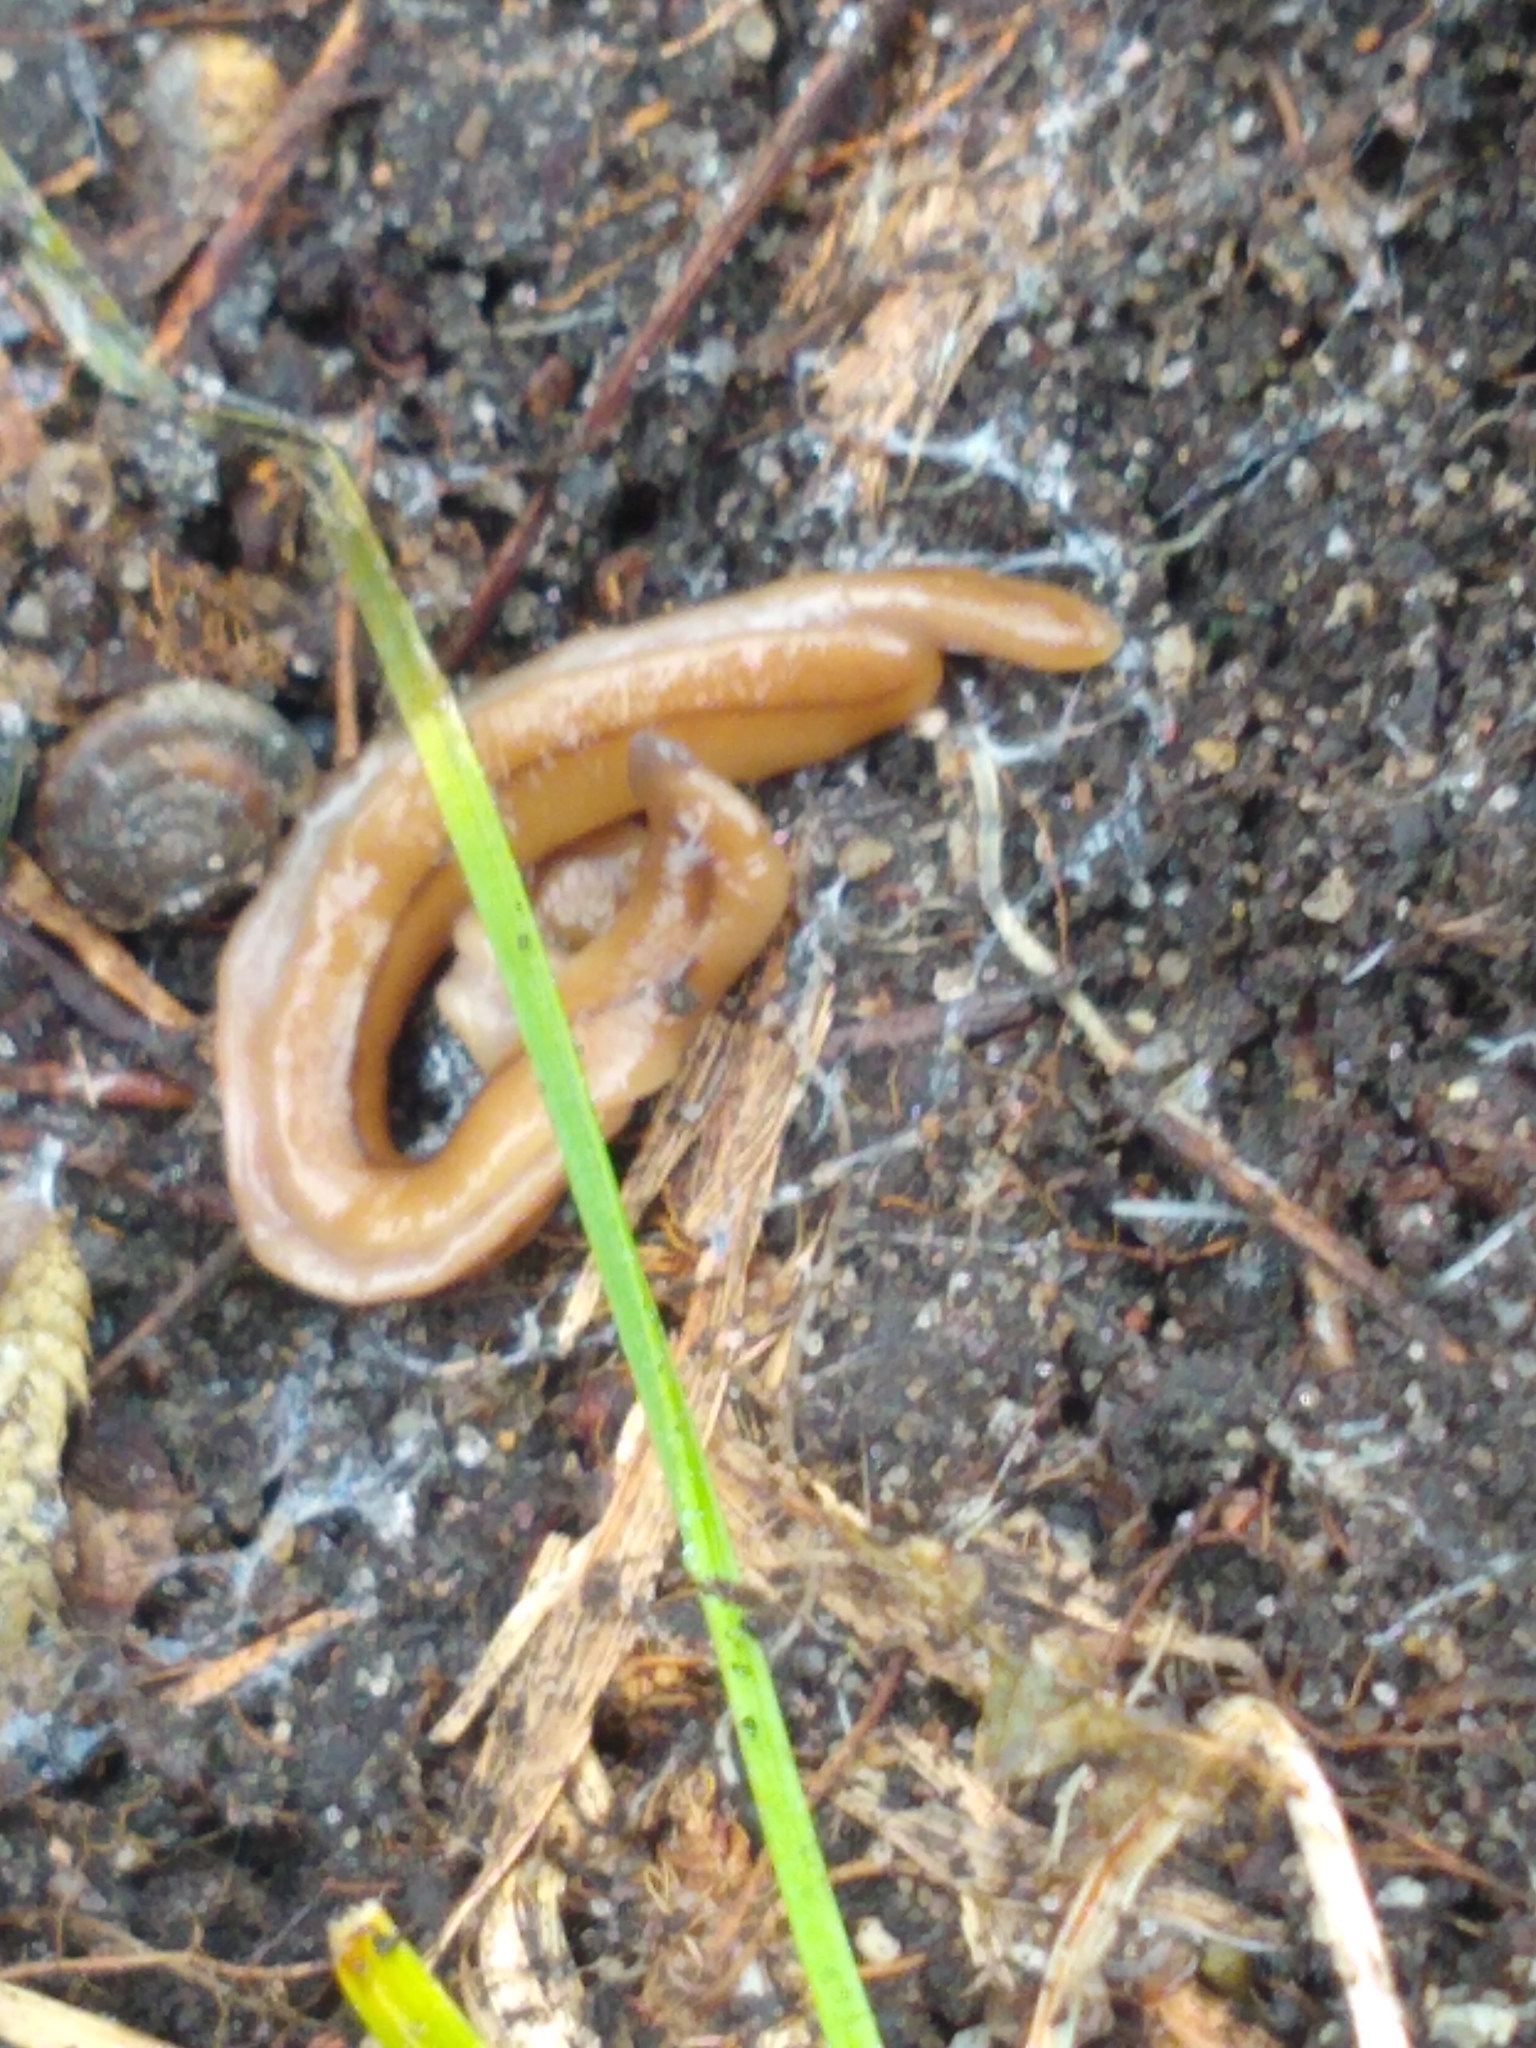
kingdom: Animalia
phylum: Platyhelminthes
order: Tricladida
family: Geoplanidae
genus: Bipalium
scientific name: Bipalium adventitium
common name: Land planarian
